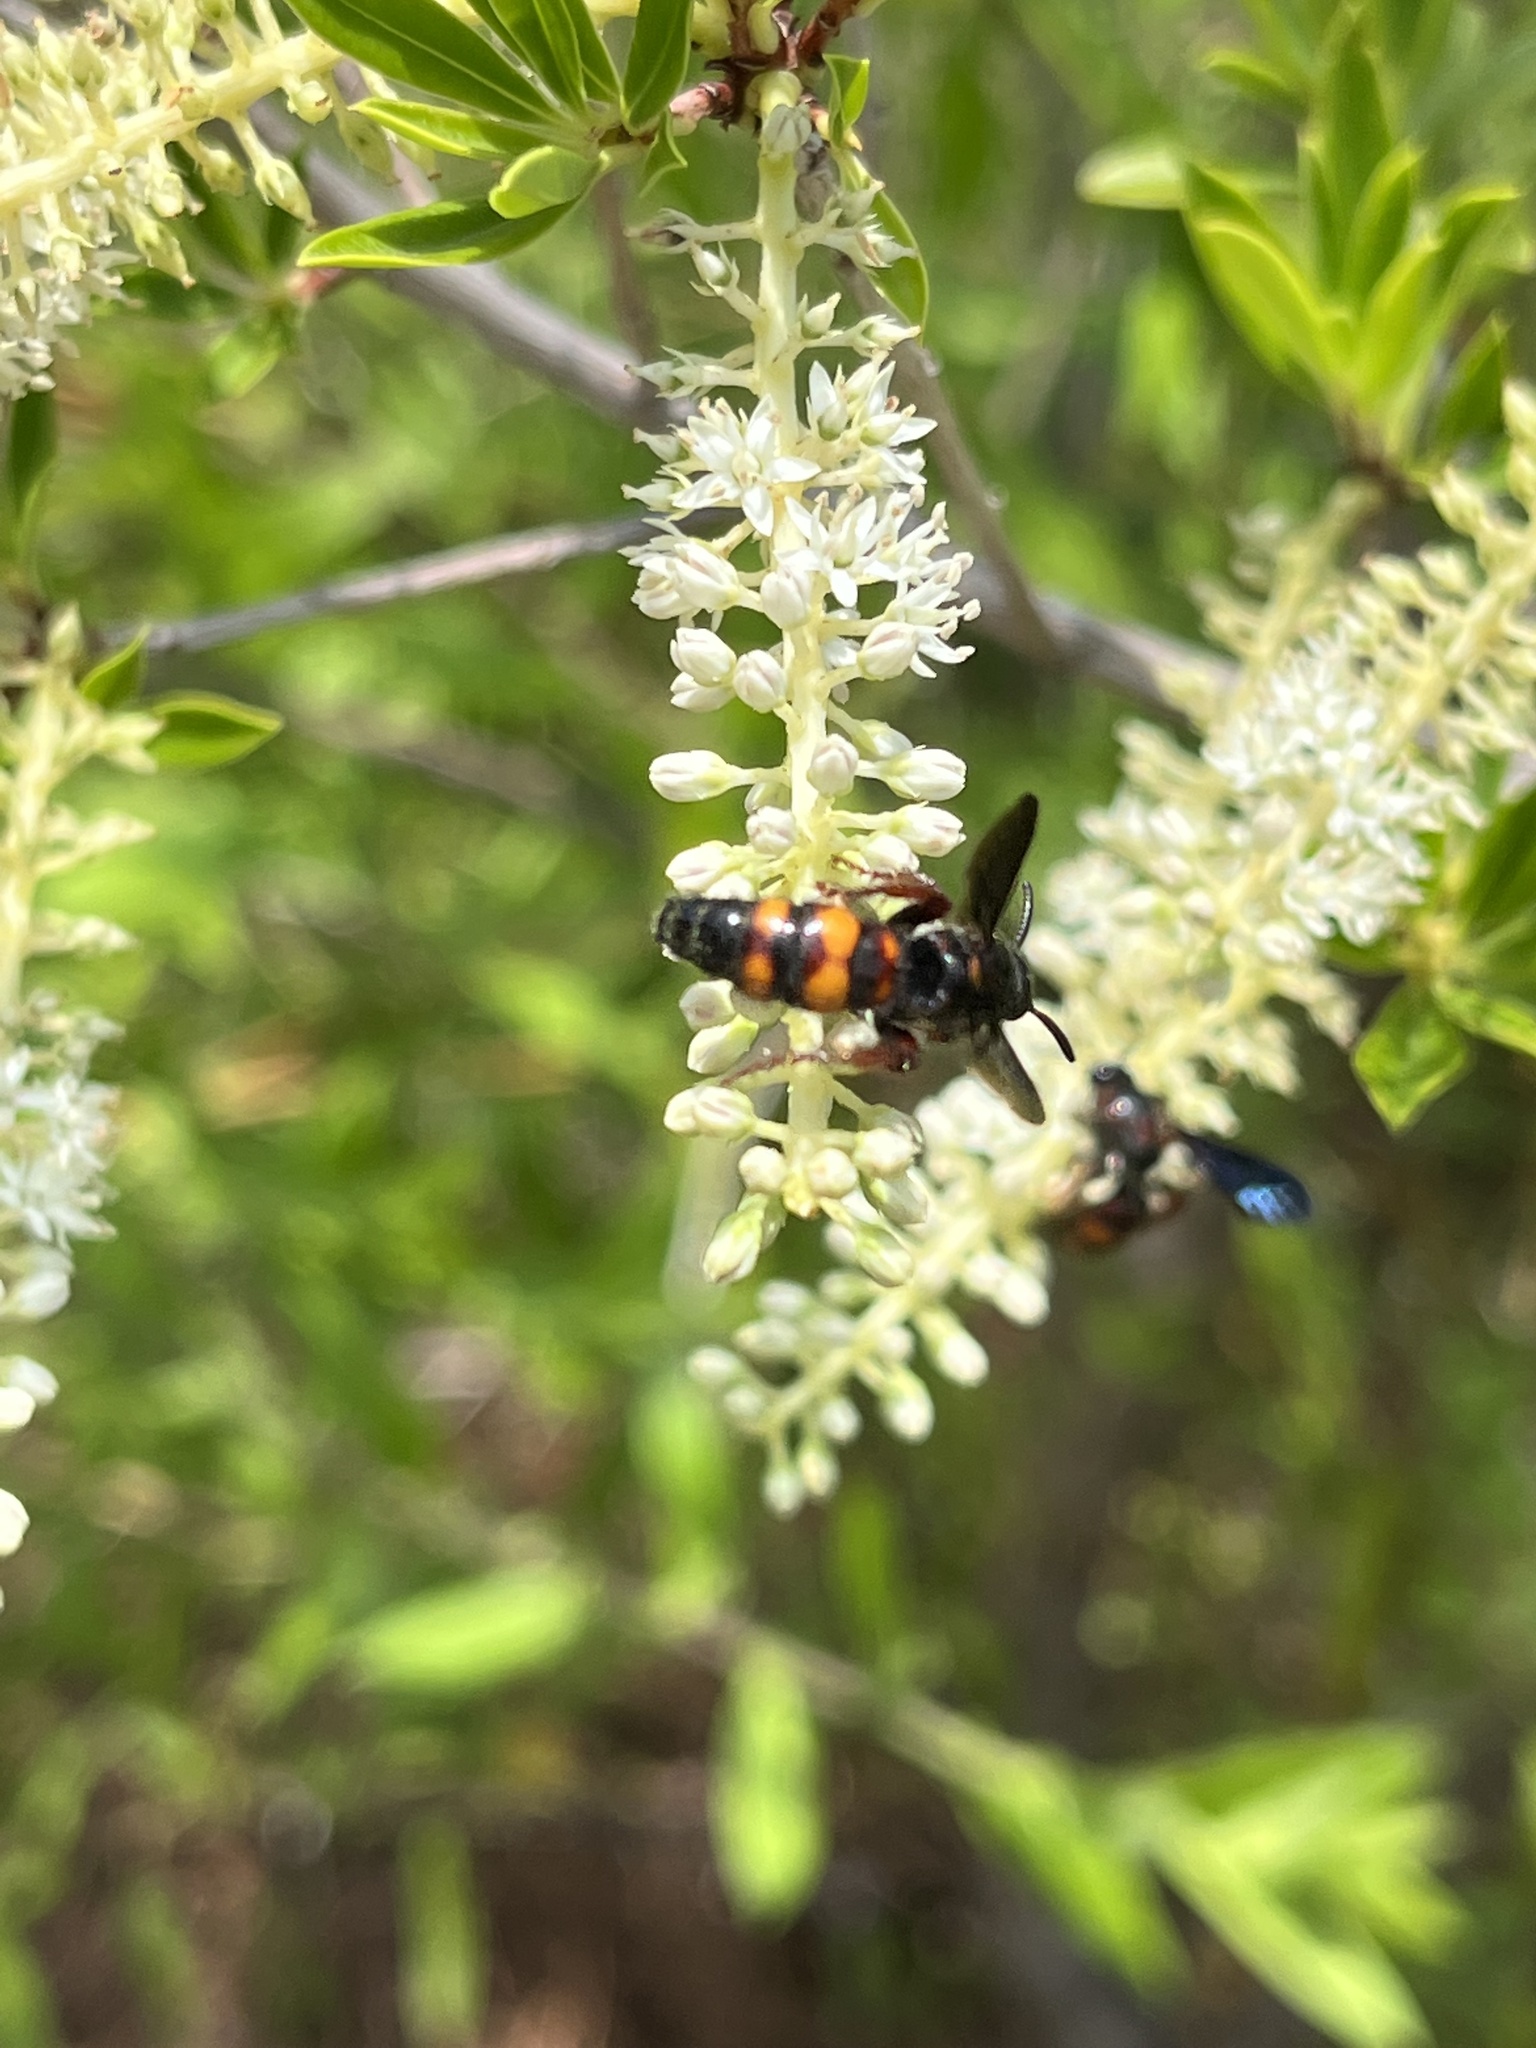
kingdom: Animalia
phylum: Arthropoda
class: Insecta
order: Hymenoptera
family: Scoliidae
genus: Scolia
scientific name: Scolia nobilitata
